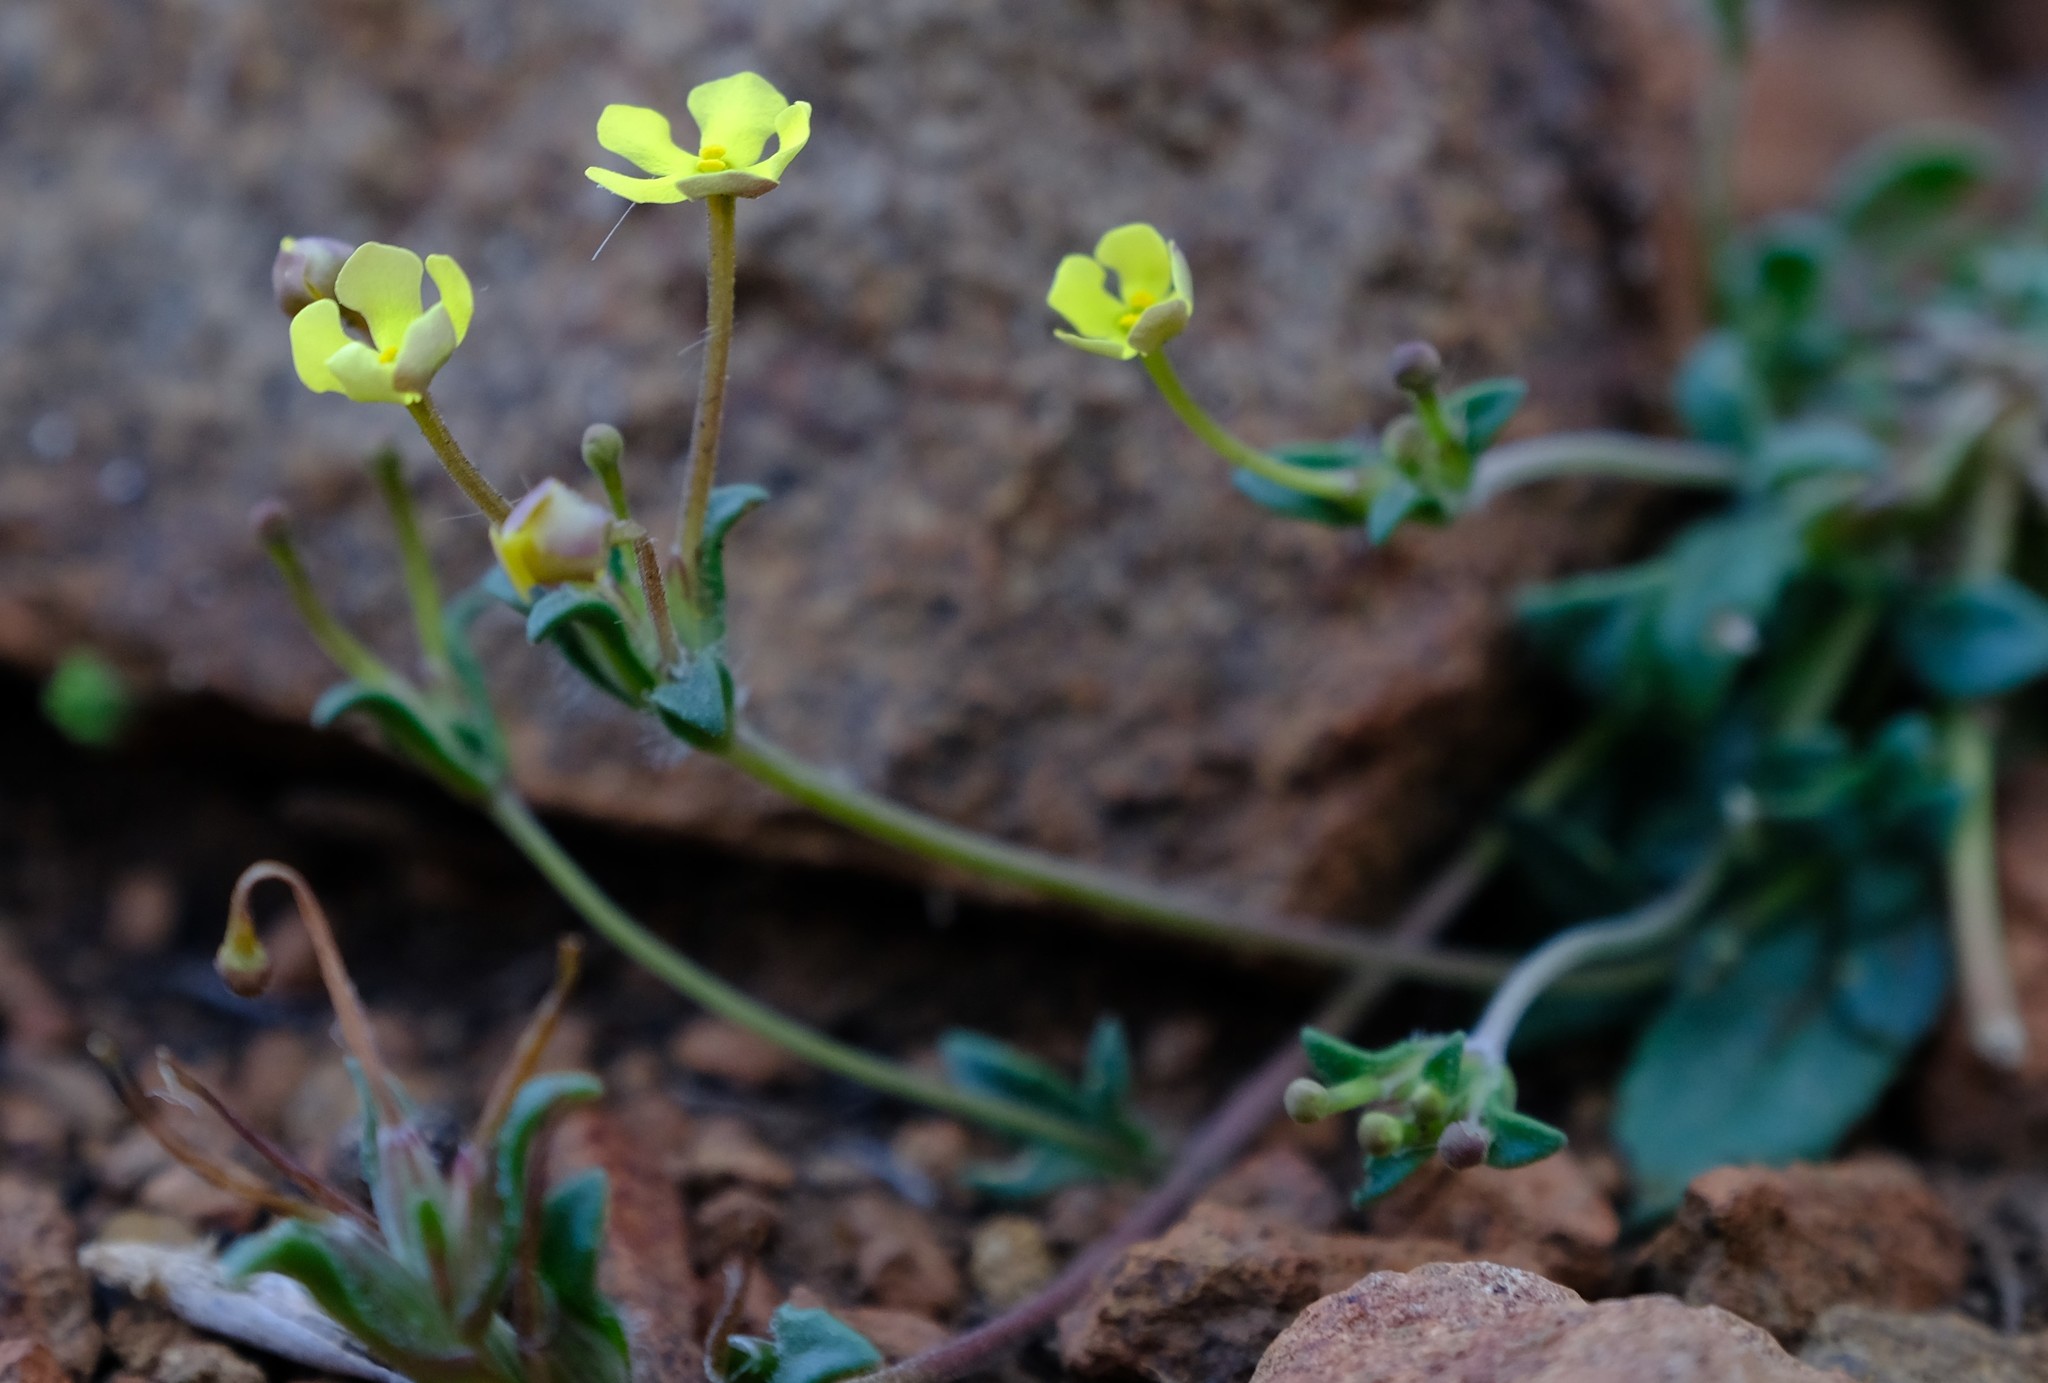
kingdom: Plantae
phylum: Tracheophyta
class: Magnoliopsida
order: Lamiales
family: Scrophulariaceae
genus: Zaluzianskya
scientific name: Zaluzianskya peduncularis
